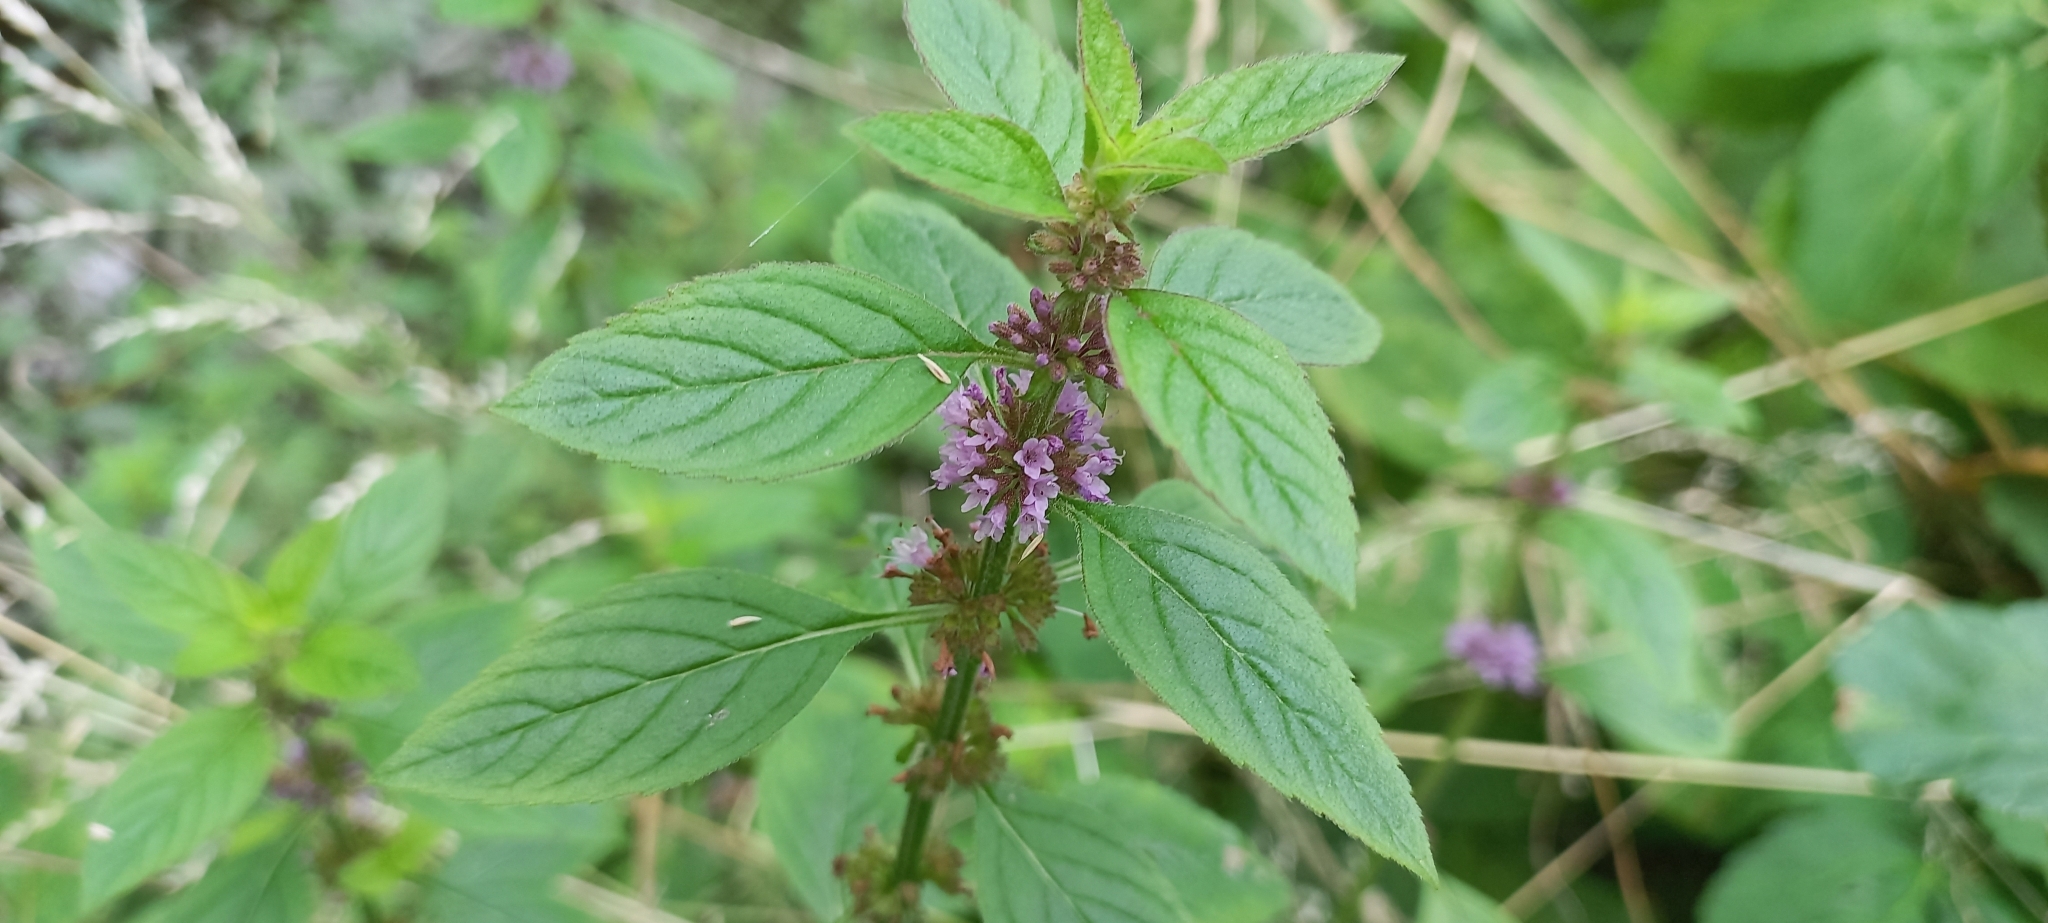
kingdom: Plantae
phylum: Tracheophyta
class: Magnoliopsida
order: Lamiales
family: Lamiaceae
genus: Mentha
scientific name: Mentha arvensis
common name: Corn mint
